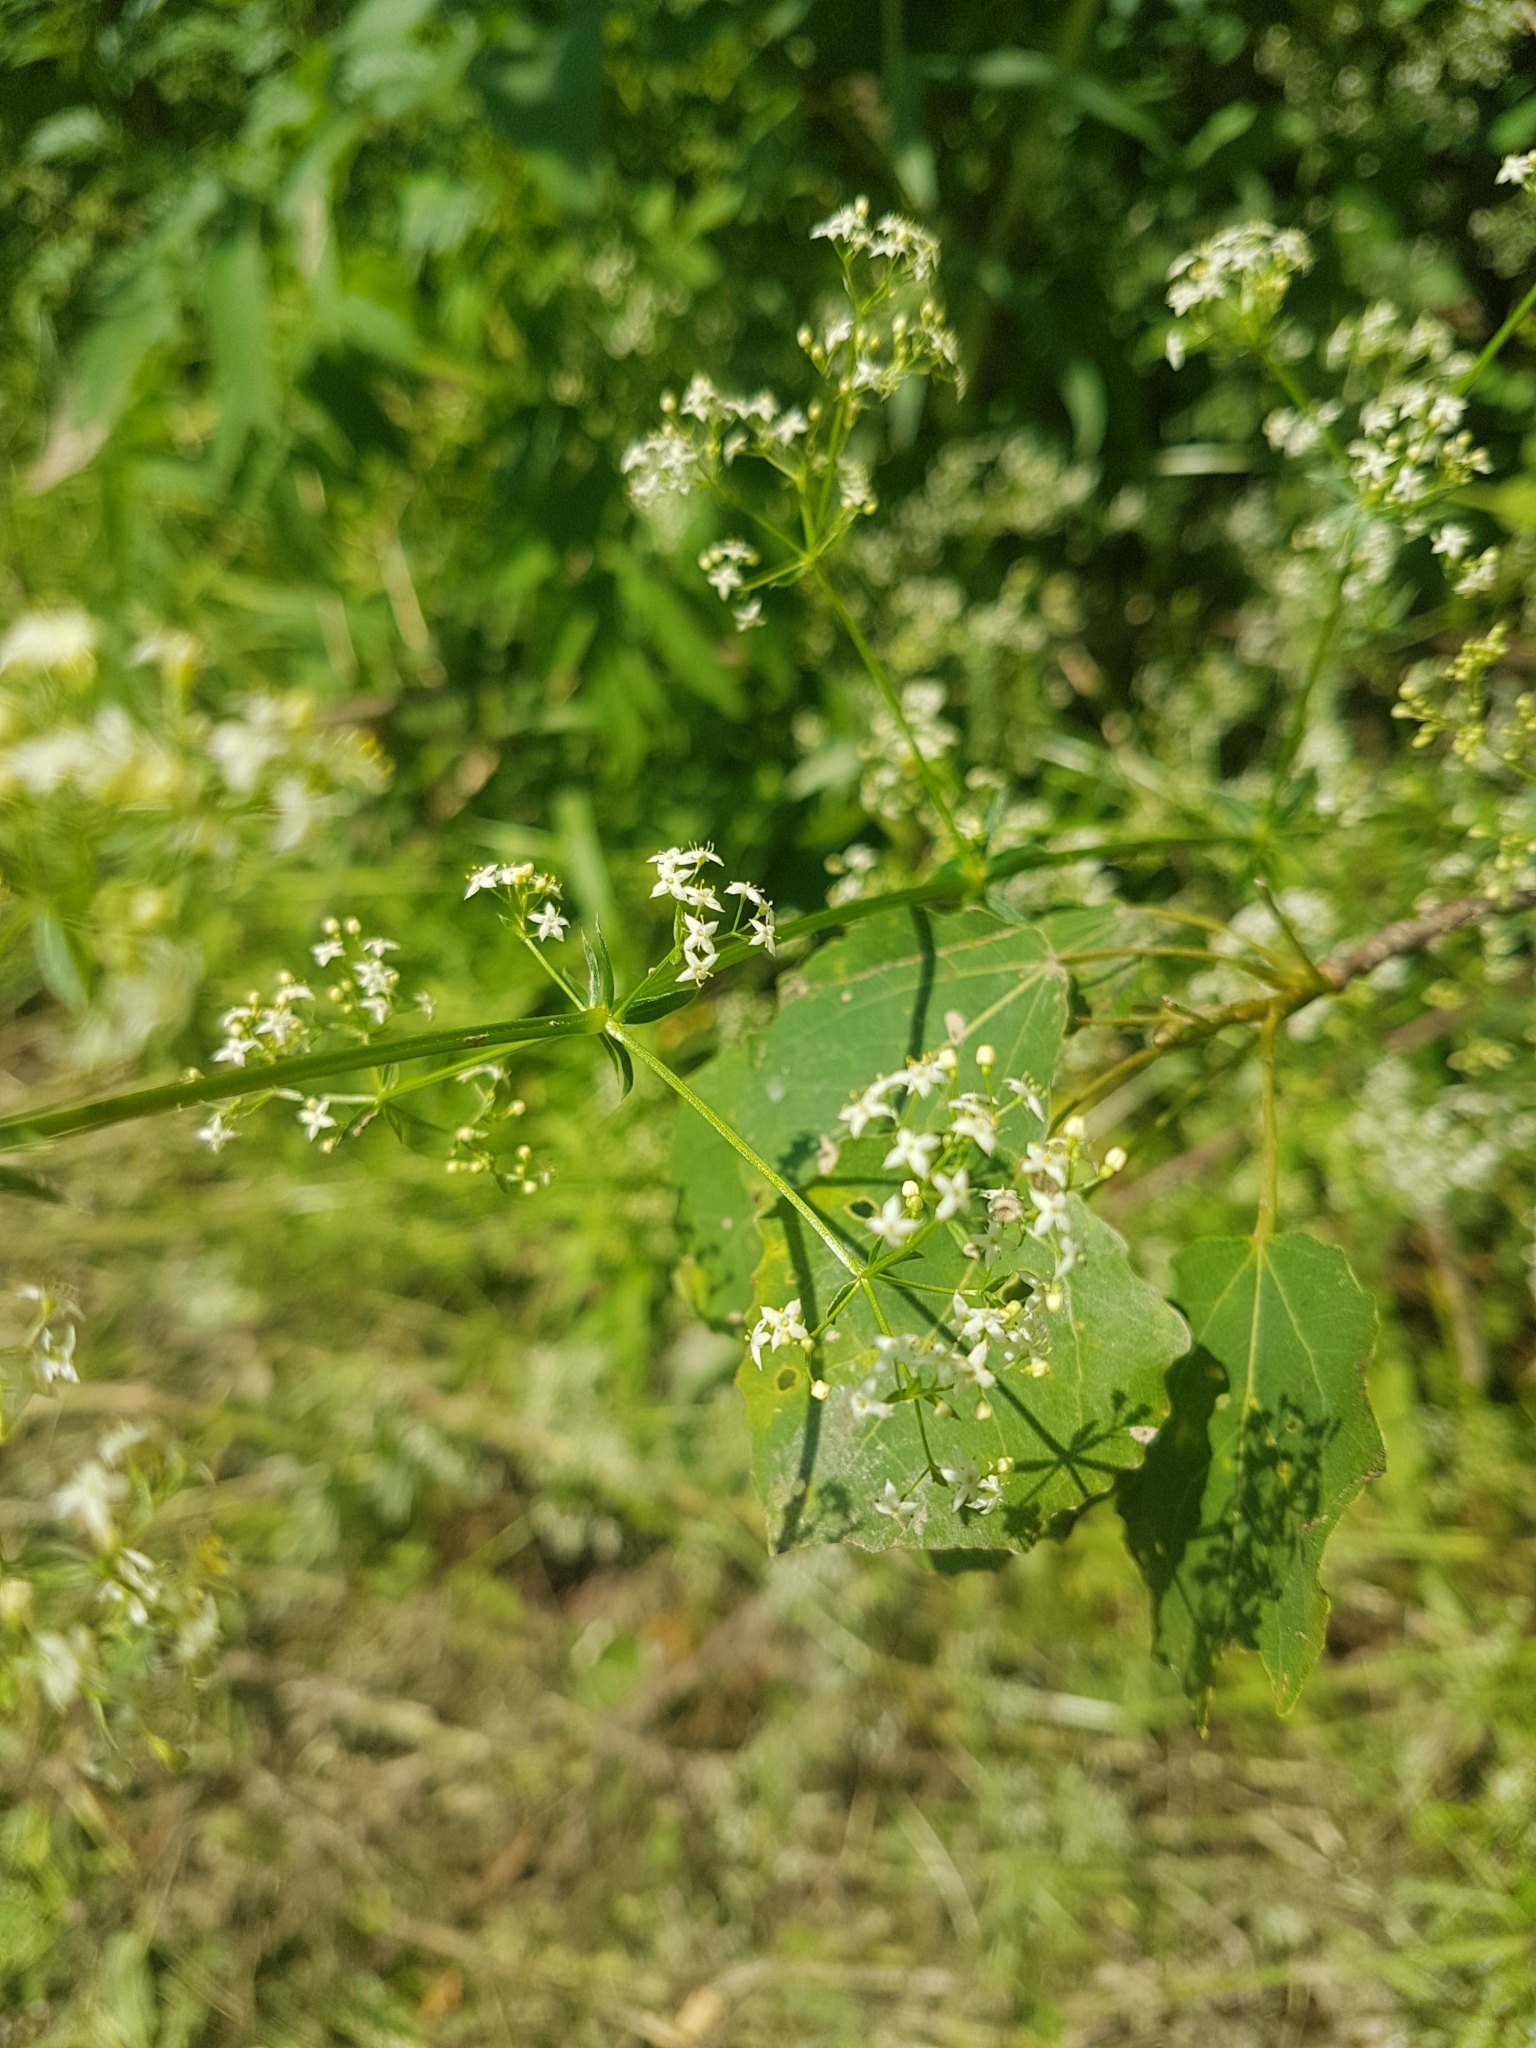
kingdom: Plantae
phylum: Tracheophyta
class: Magnoliopsida
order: Gentianales
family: Rubiaceae
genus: Galium
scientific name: Galium mollugo
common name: Hedge bedstraw
